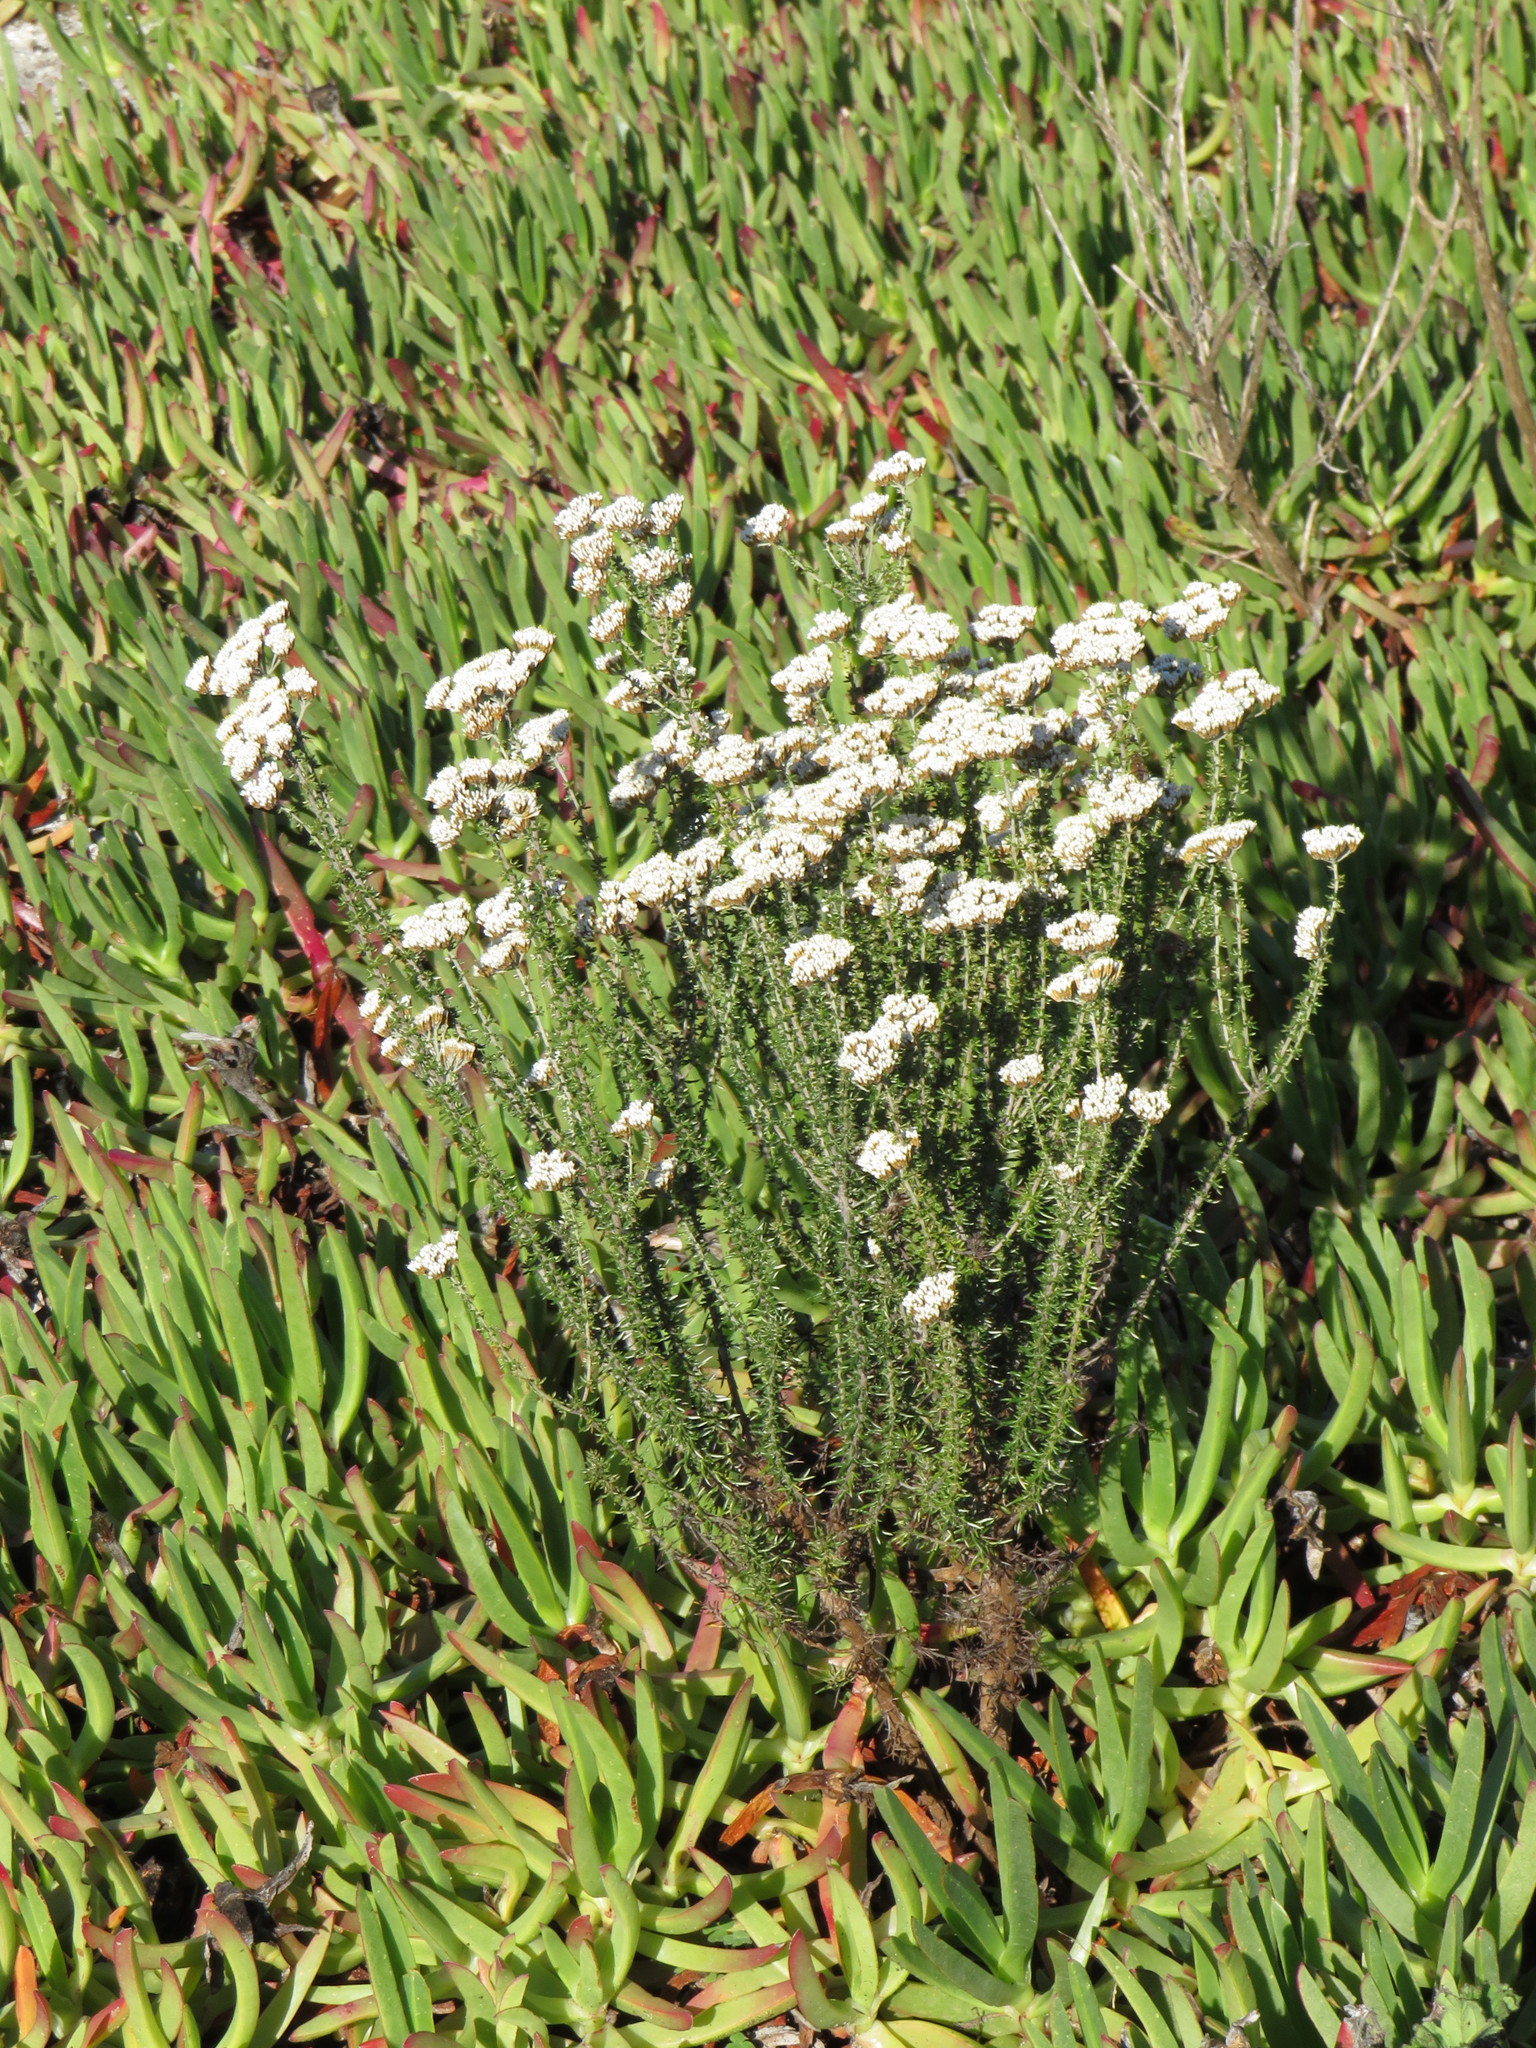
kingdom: Plantae
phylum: Tracheophyta
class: Magnoliopsida
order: Asterales
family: Asteraceae
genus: Metalasia
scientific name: Metalasia densa
